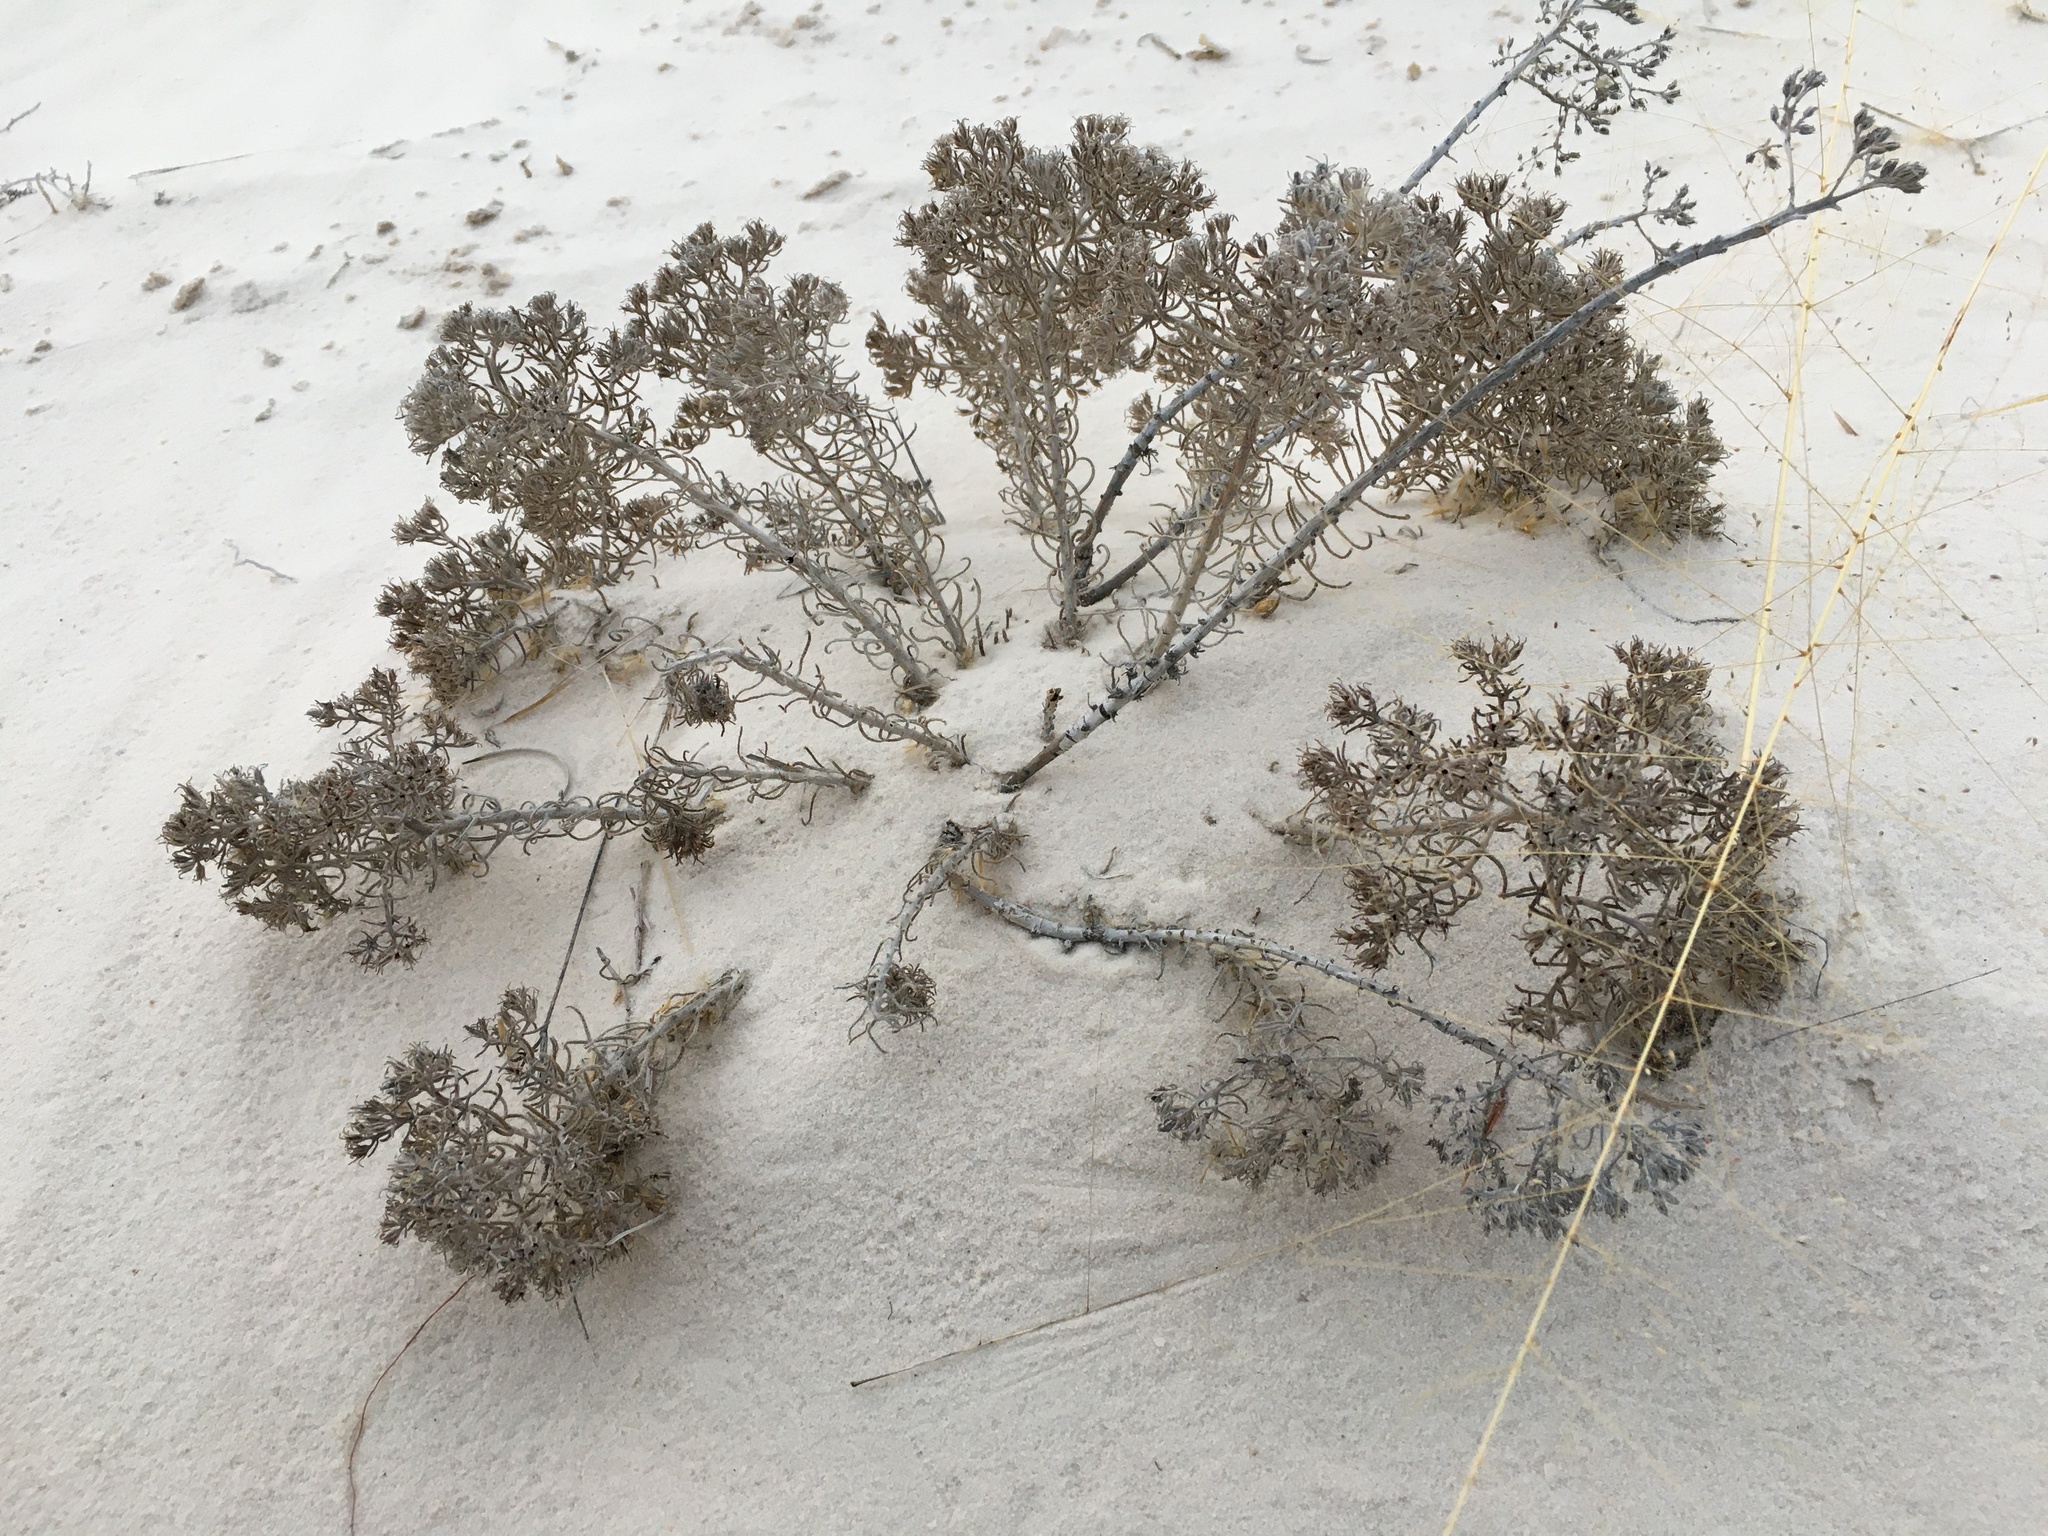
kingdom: Plantae
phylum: Tracheophyta
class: Magnoliopsida
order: Boraginales
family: Namaceae
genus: Andropus
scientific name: Andropus carnosus
